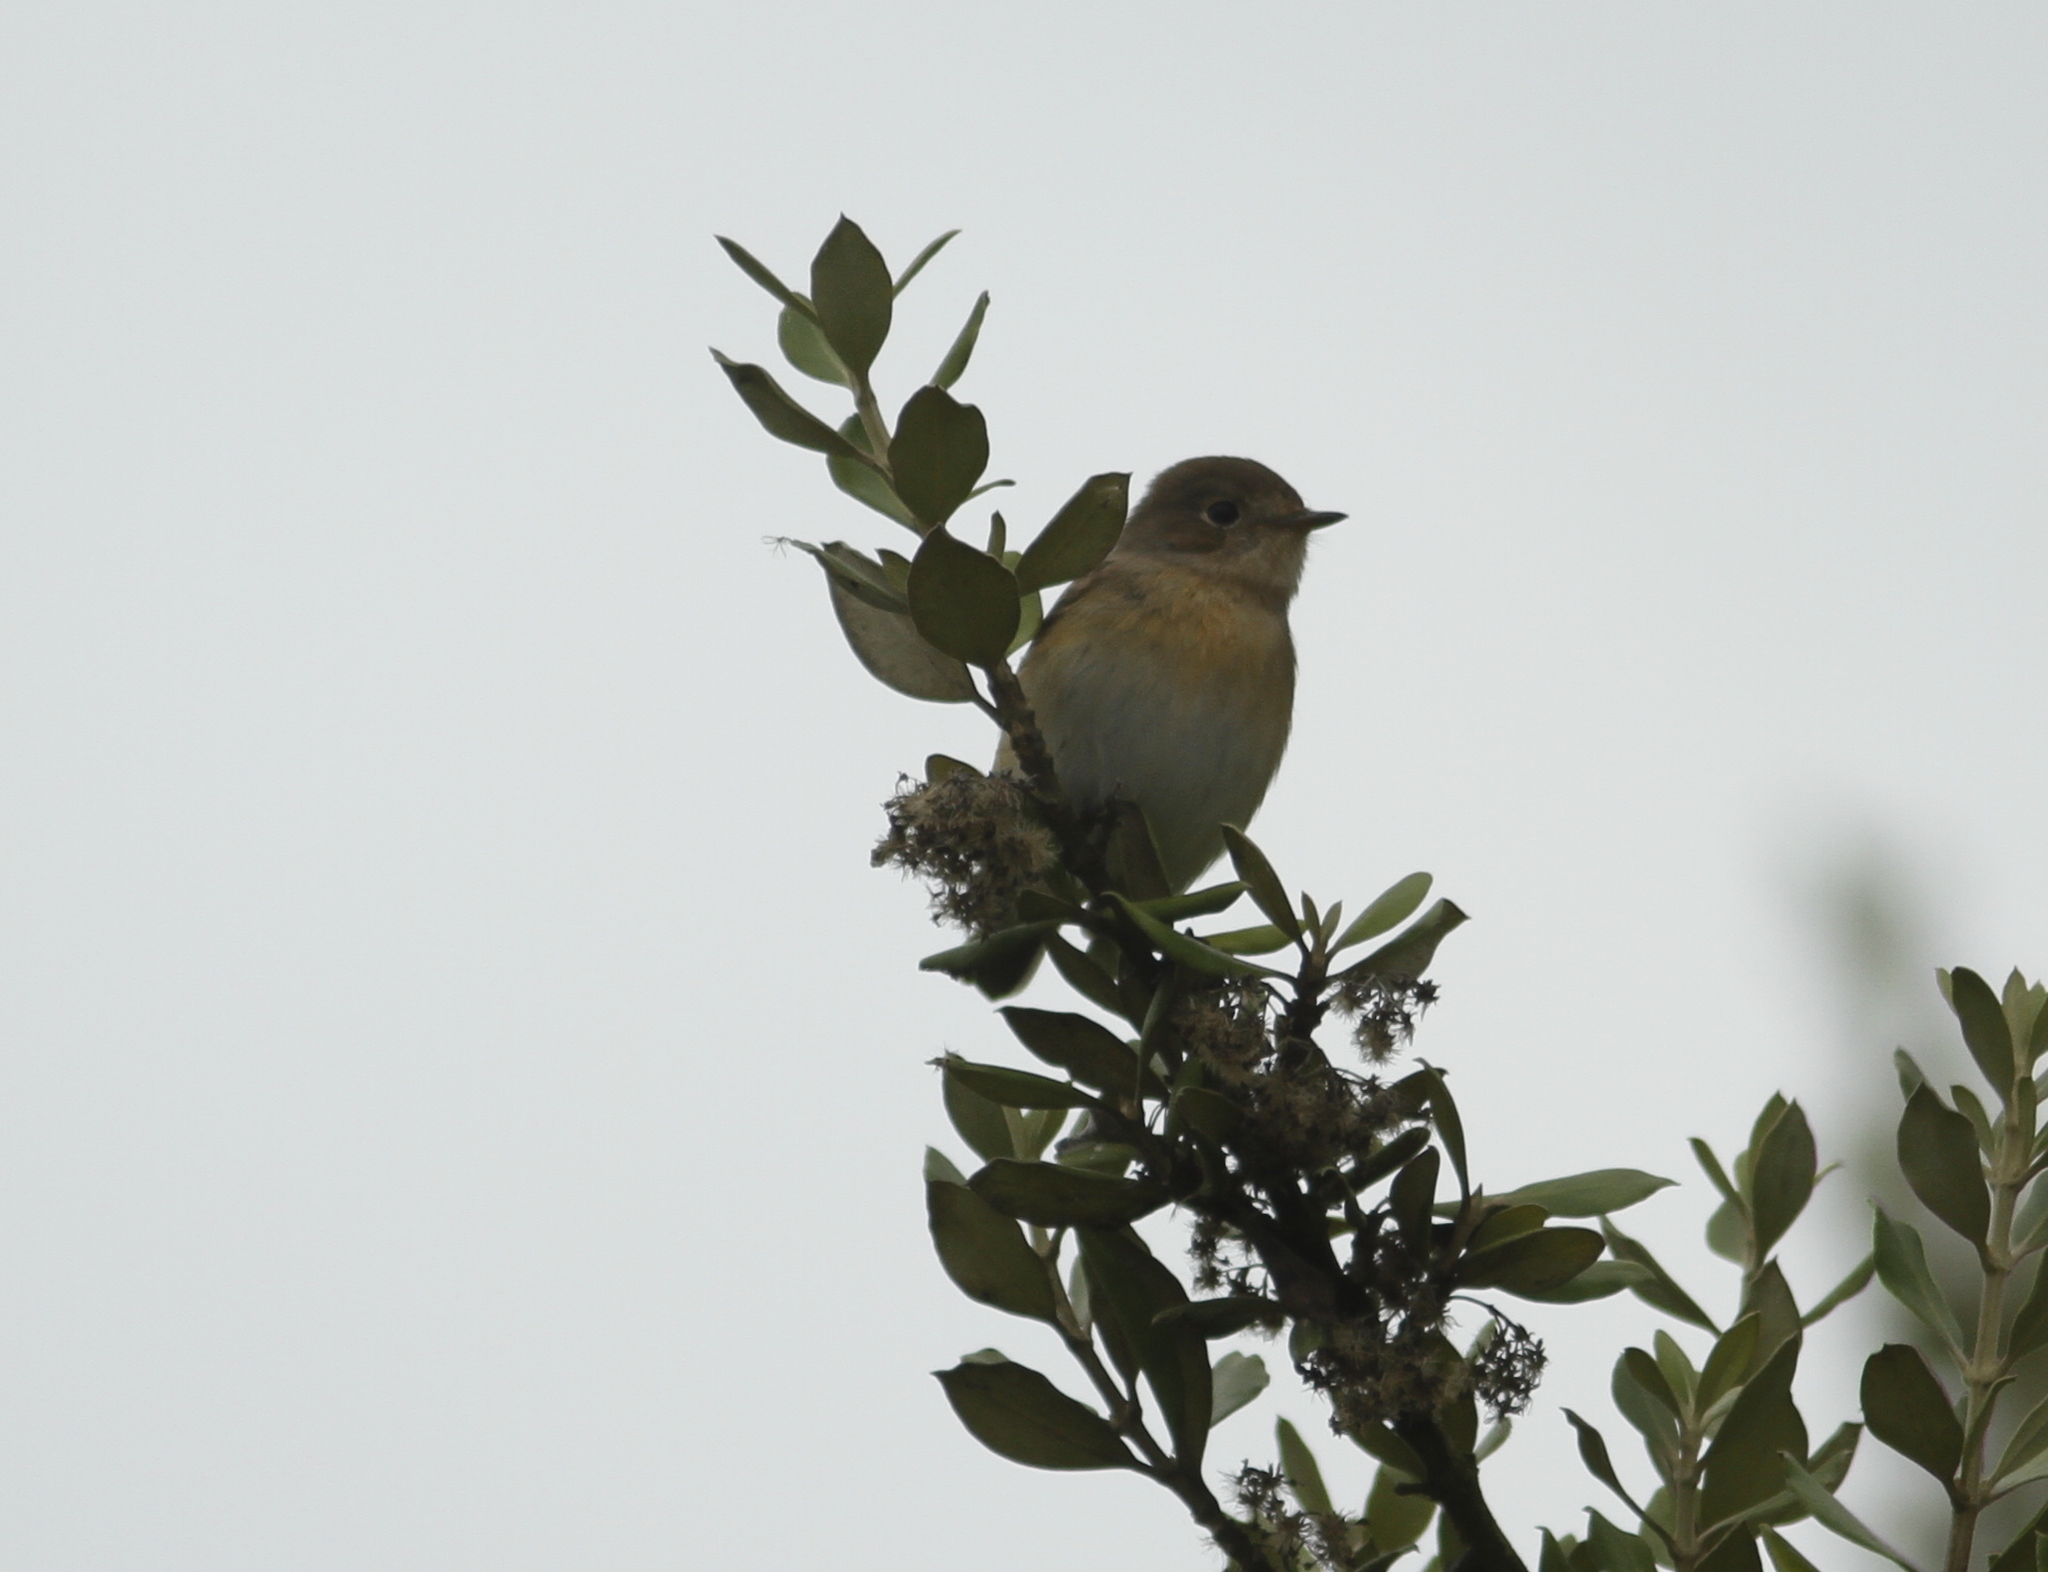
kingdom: Animalia
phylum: Chordata
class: Aves
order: Passeriformes
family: Muscicapidae
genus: Ficedula
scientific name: Ficedula parva
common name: Red-breasted flycatcher
